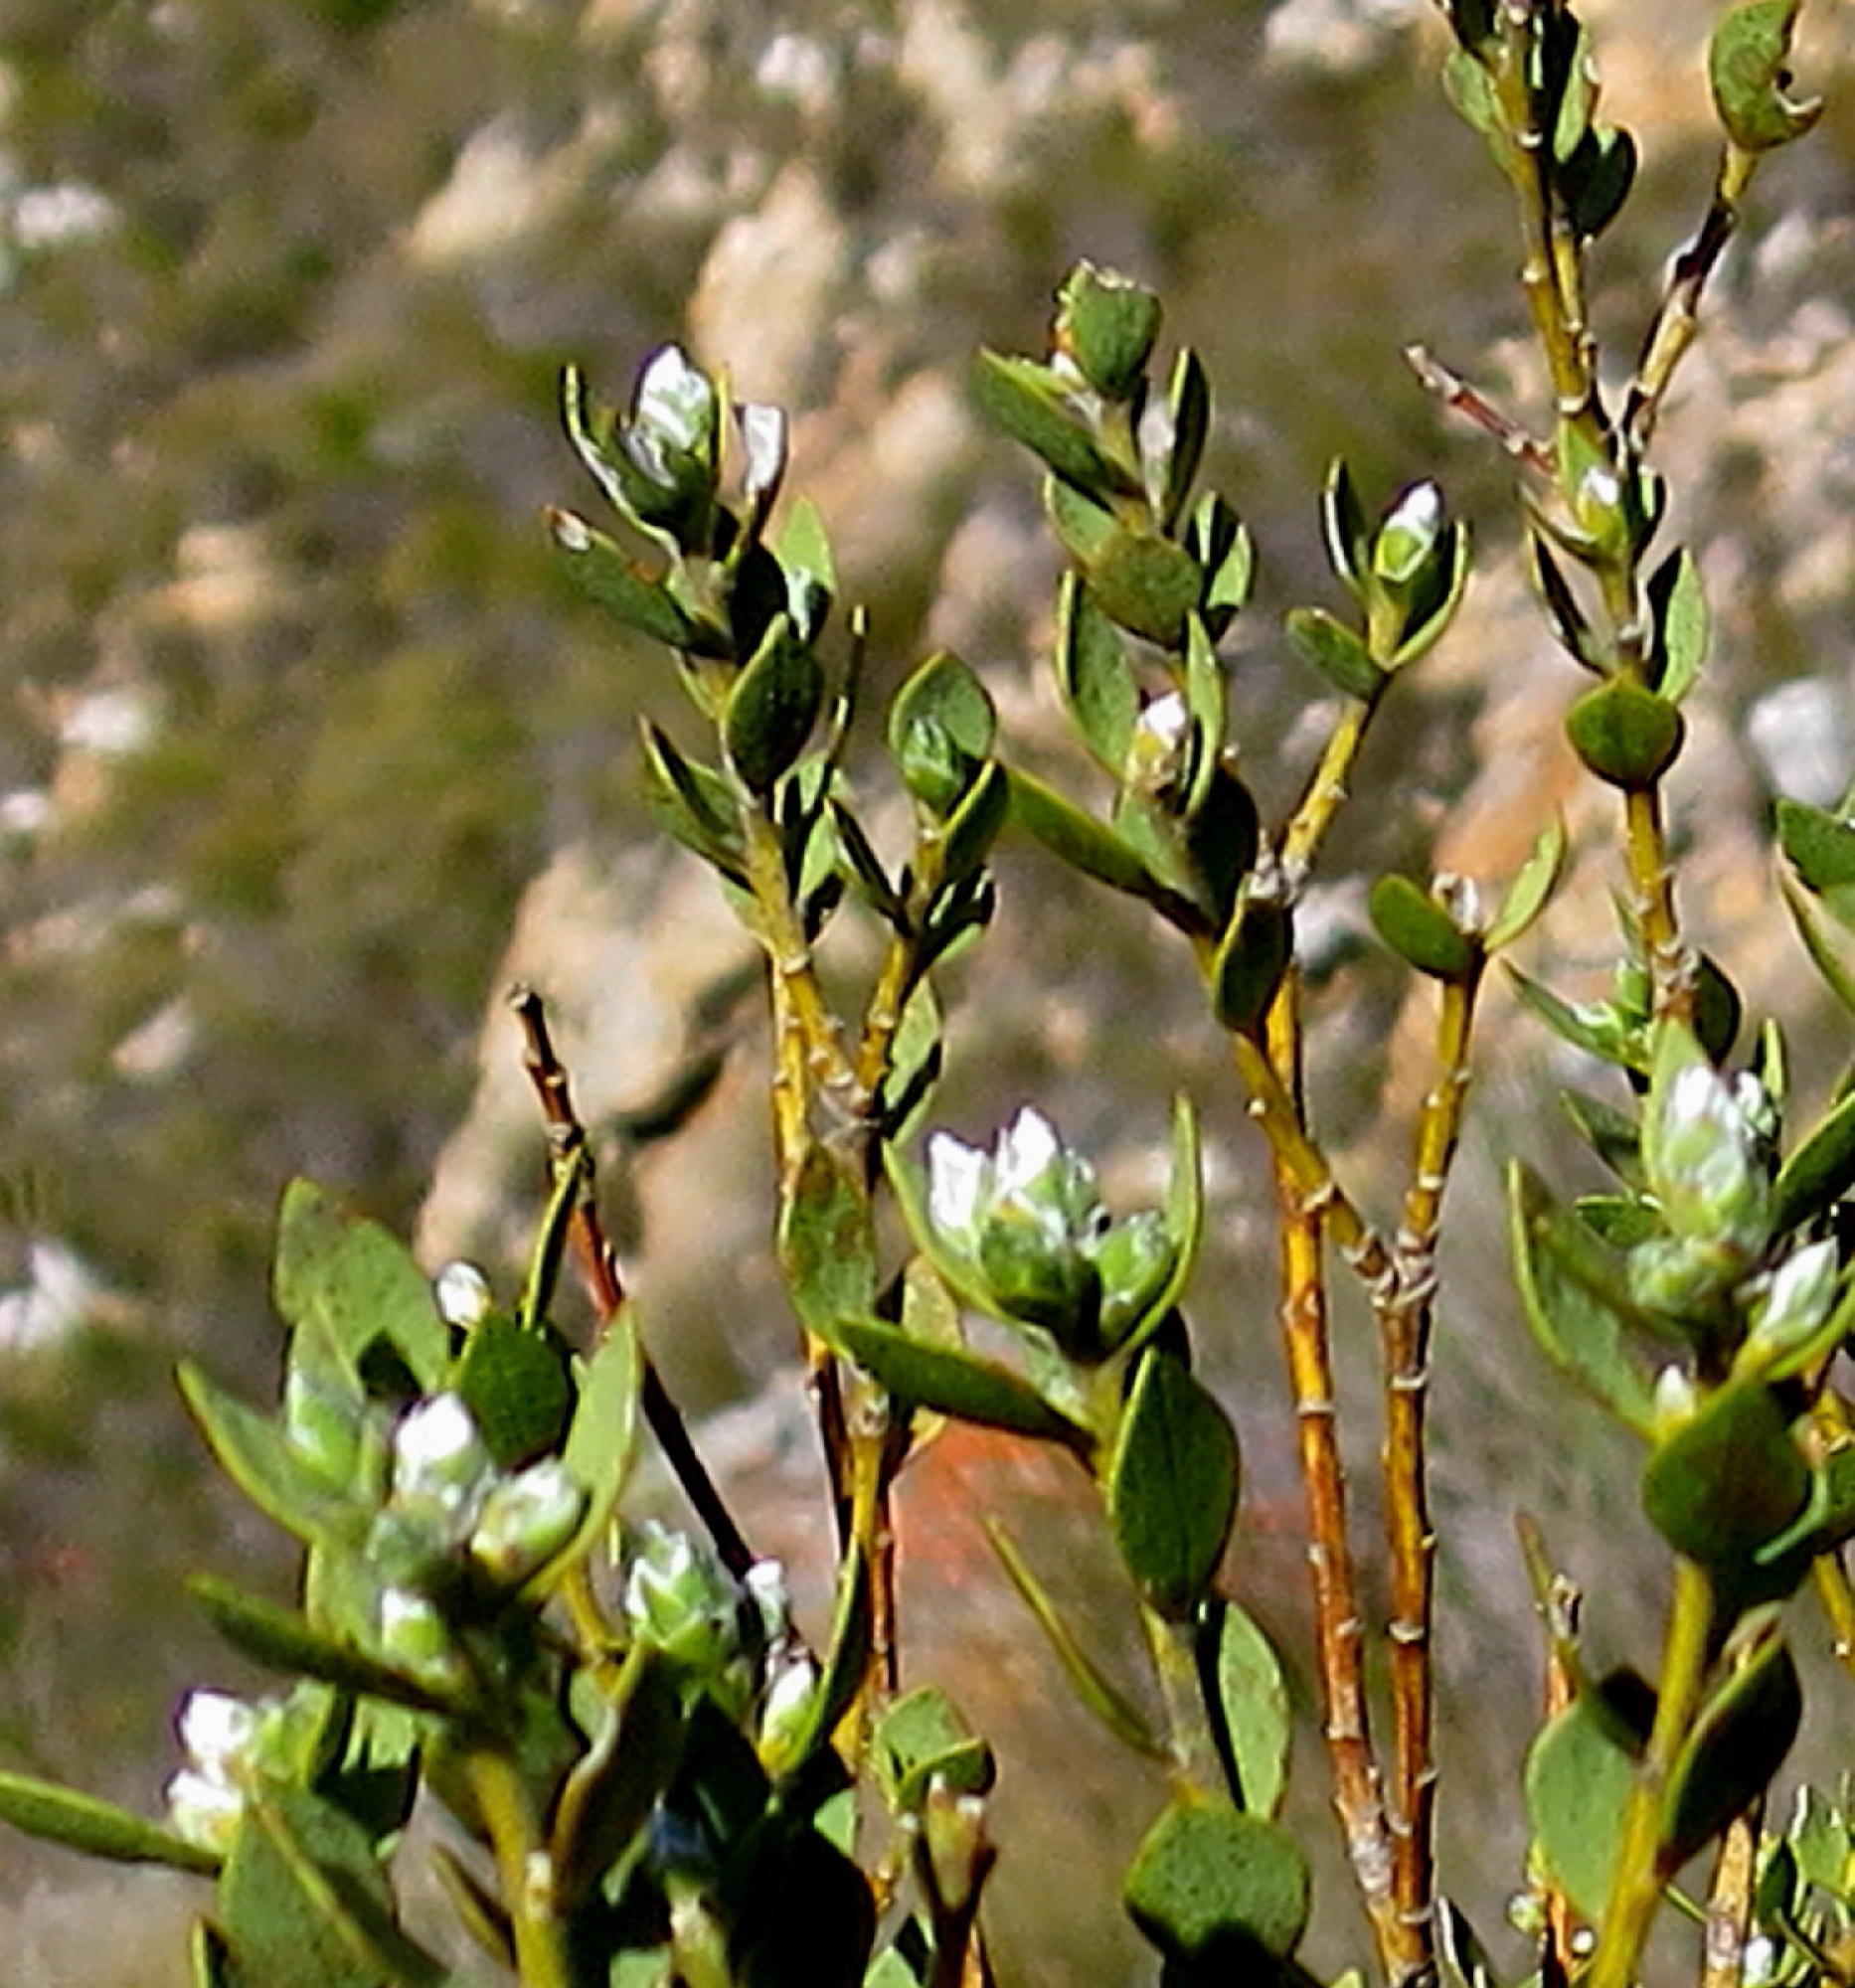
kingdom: Plantae
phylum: Tracheophyta
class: Magnoliopsida
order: Fabales
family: Fabaceae
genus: Liparia
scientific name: Liparia latifolia
